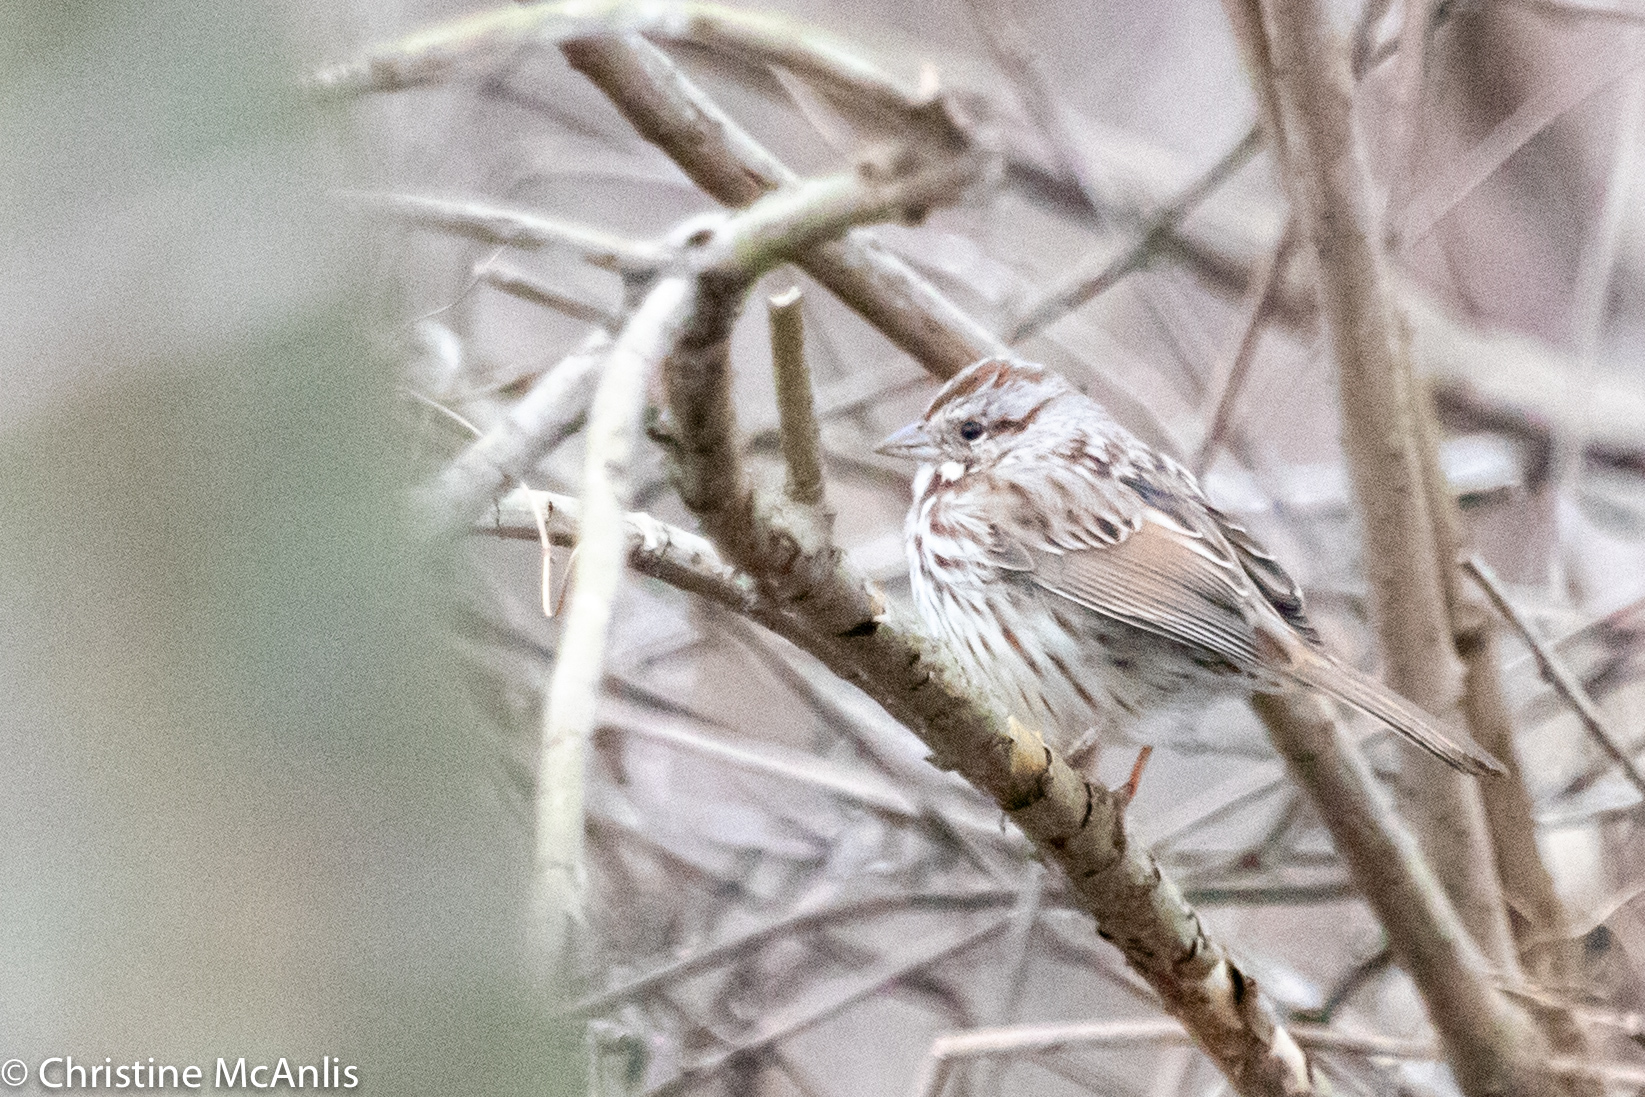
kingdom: Animalia
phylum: Chordata
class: Aves
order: Passeriformes
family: Passerellidae
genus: Melospiza
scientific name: Melospiza melodia
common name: Song sparrow
